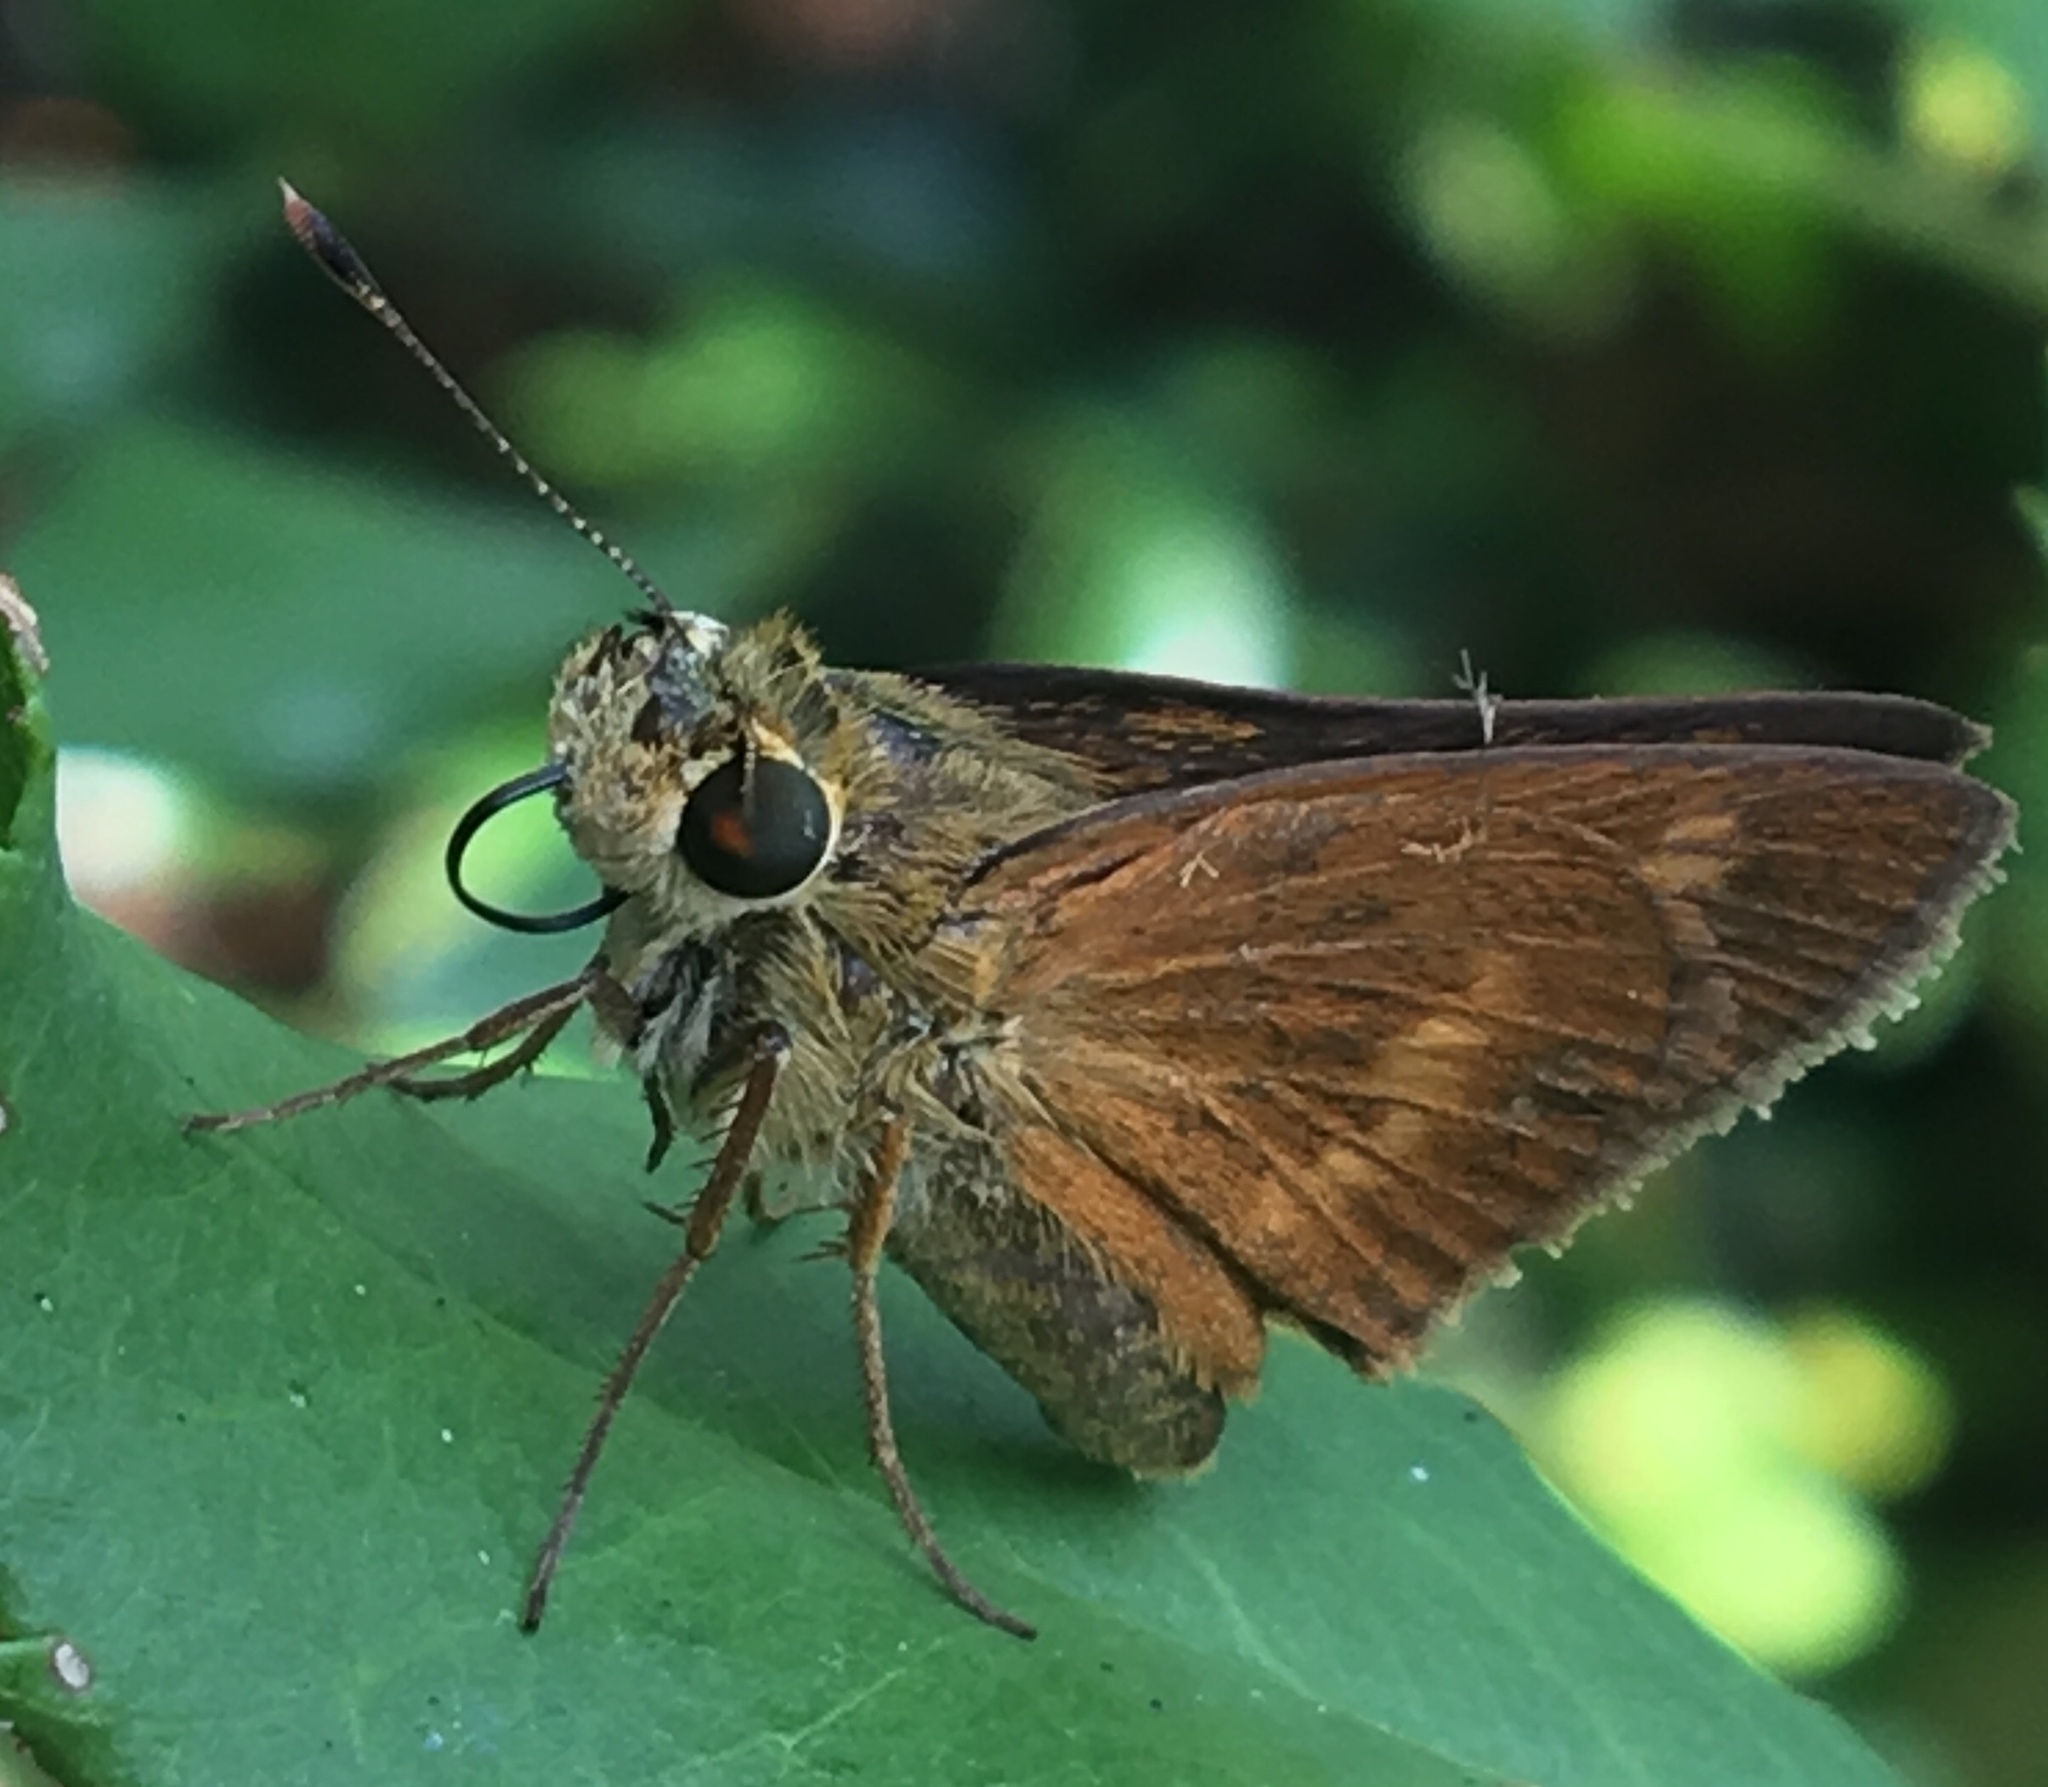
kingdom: Animalia
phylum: Arthropoda
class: Insecta
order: Lepidoptera
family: Hesperiidae
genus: Polites
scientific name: Polites egeremet
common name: Northern broken-dash
